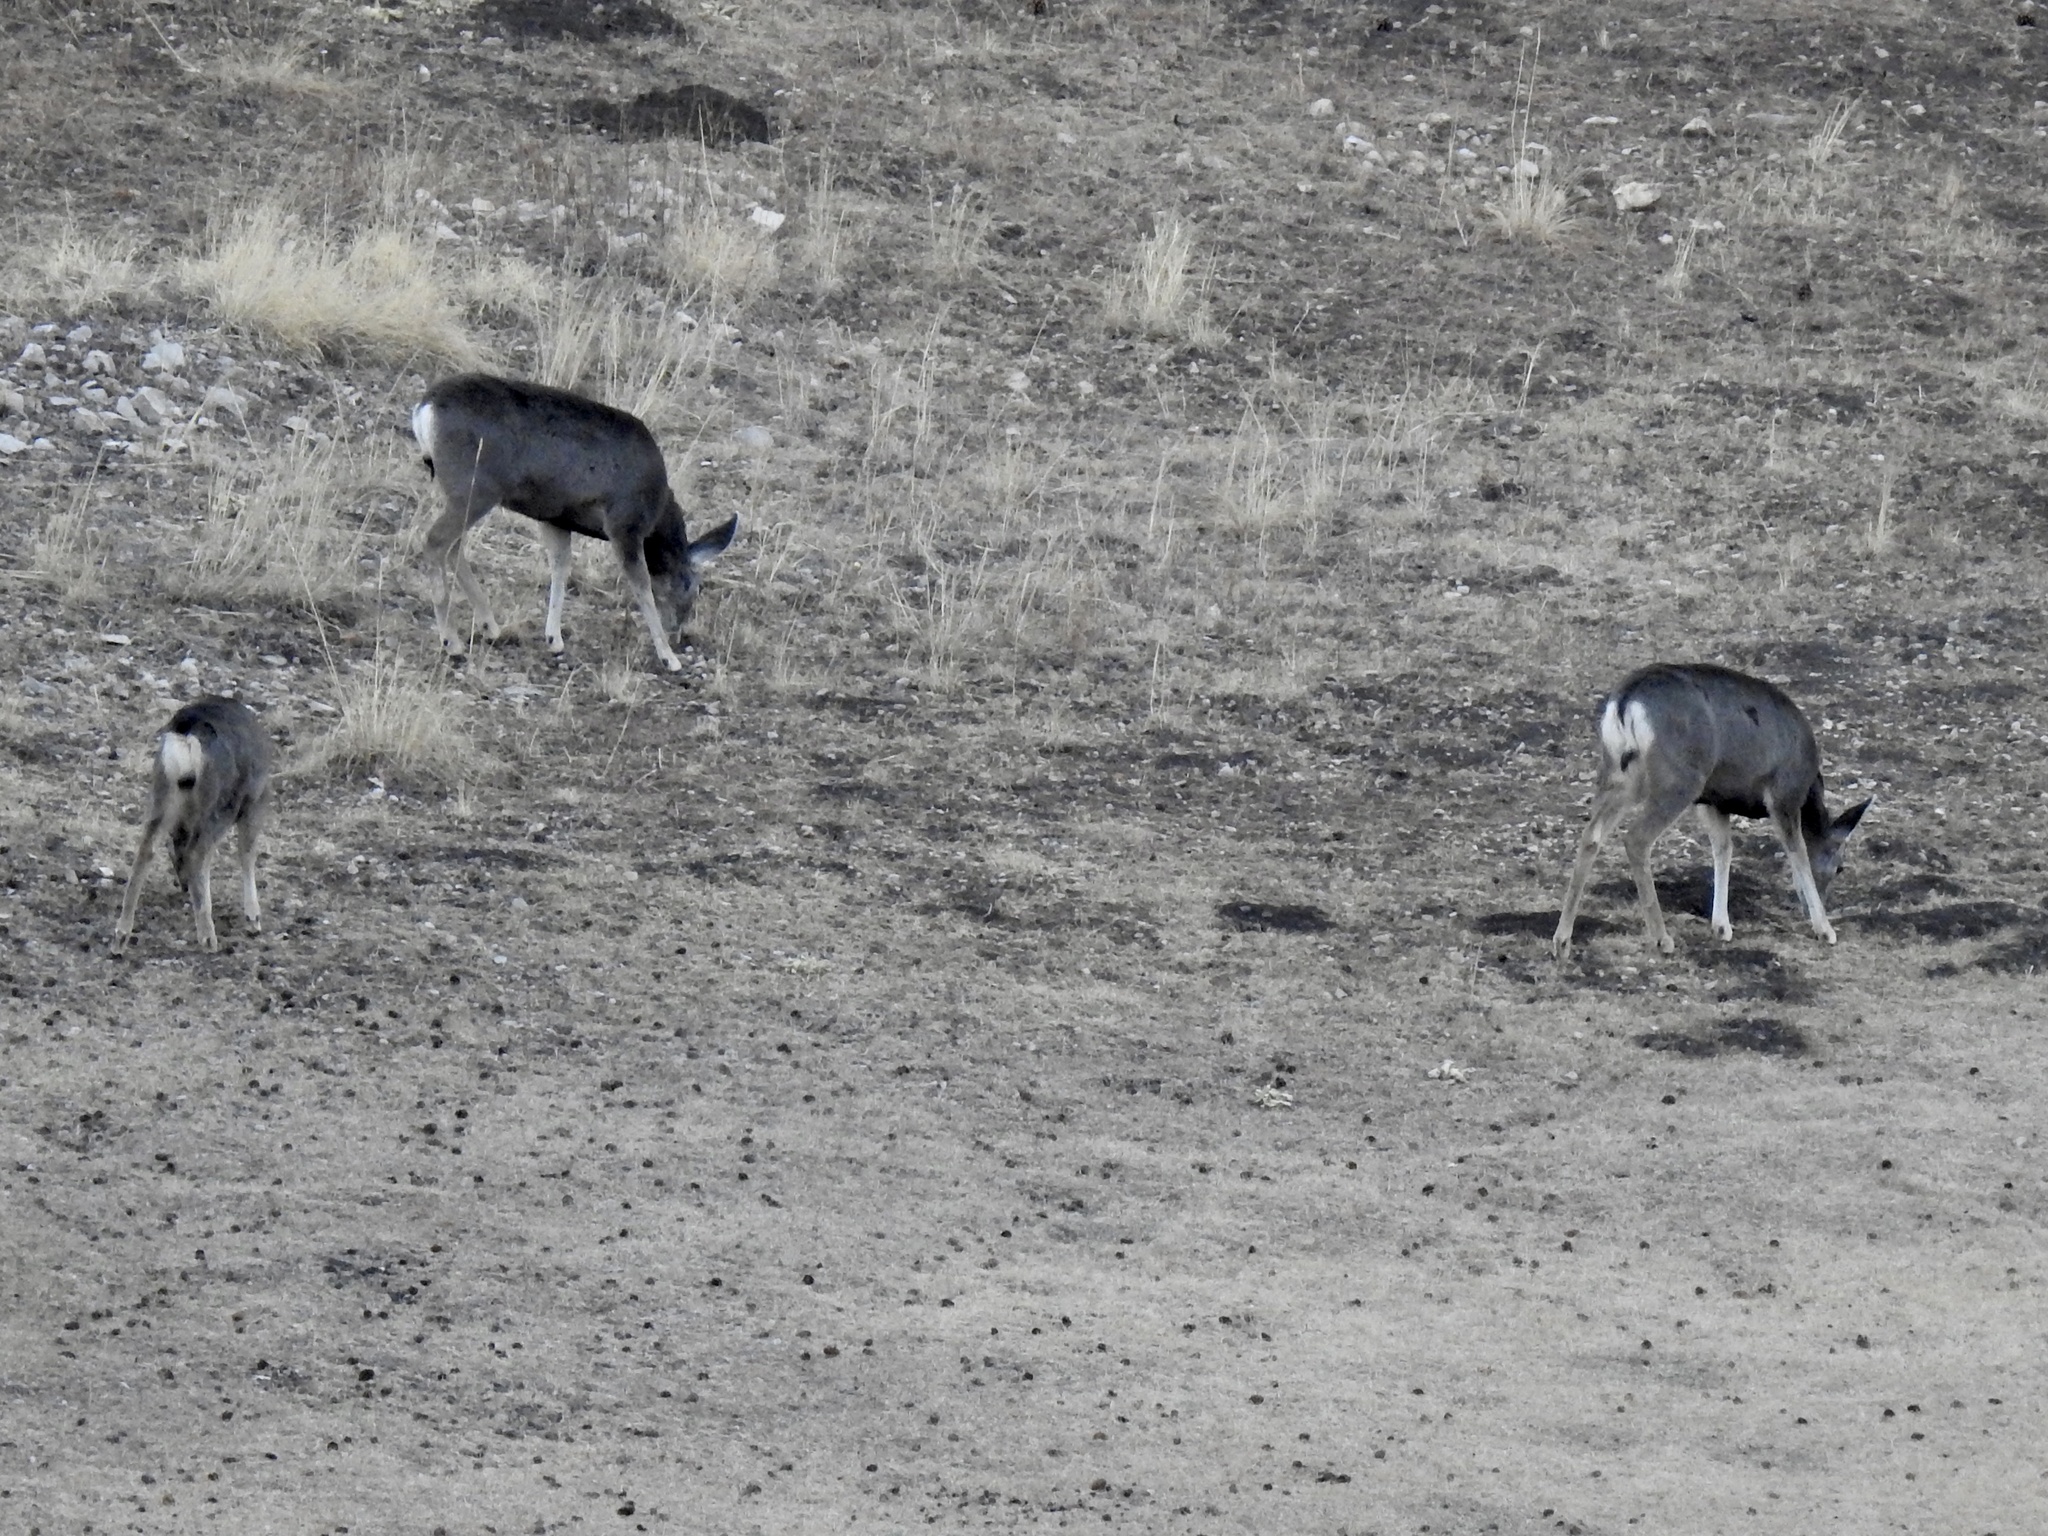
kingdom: Animalia
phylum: Chordata
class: Mammalia
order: Artiodactyla
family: Cervidae
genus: Odocoileus
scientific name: Odocoileus hemionus
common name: Mule deer
